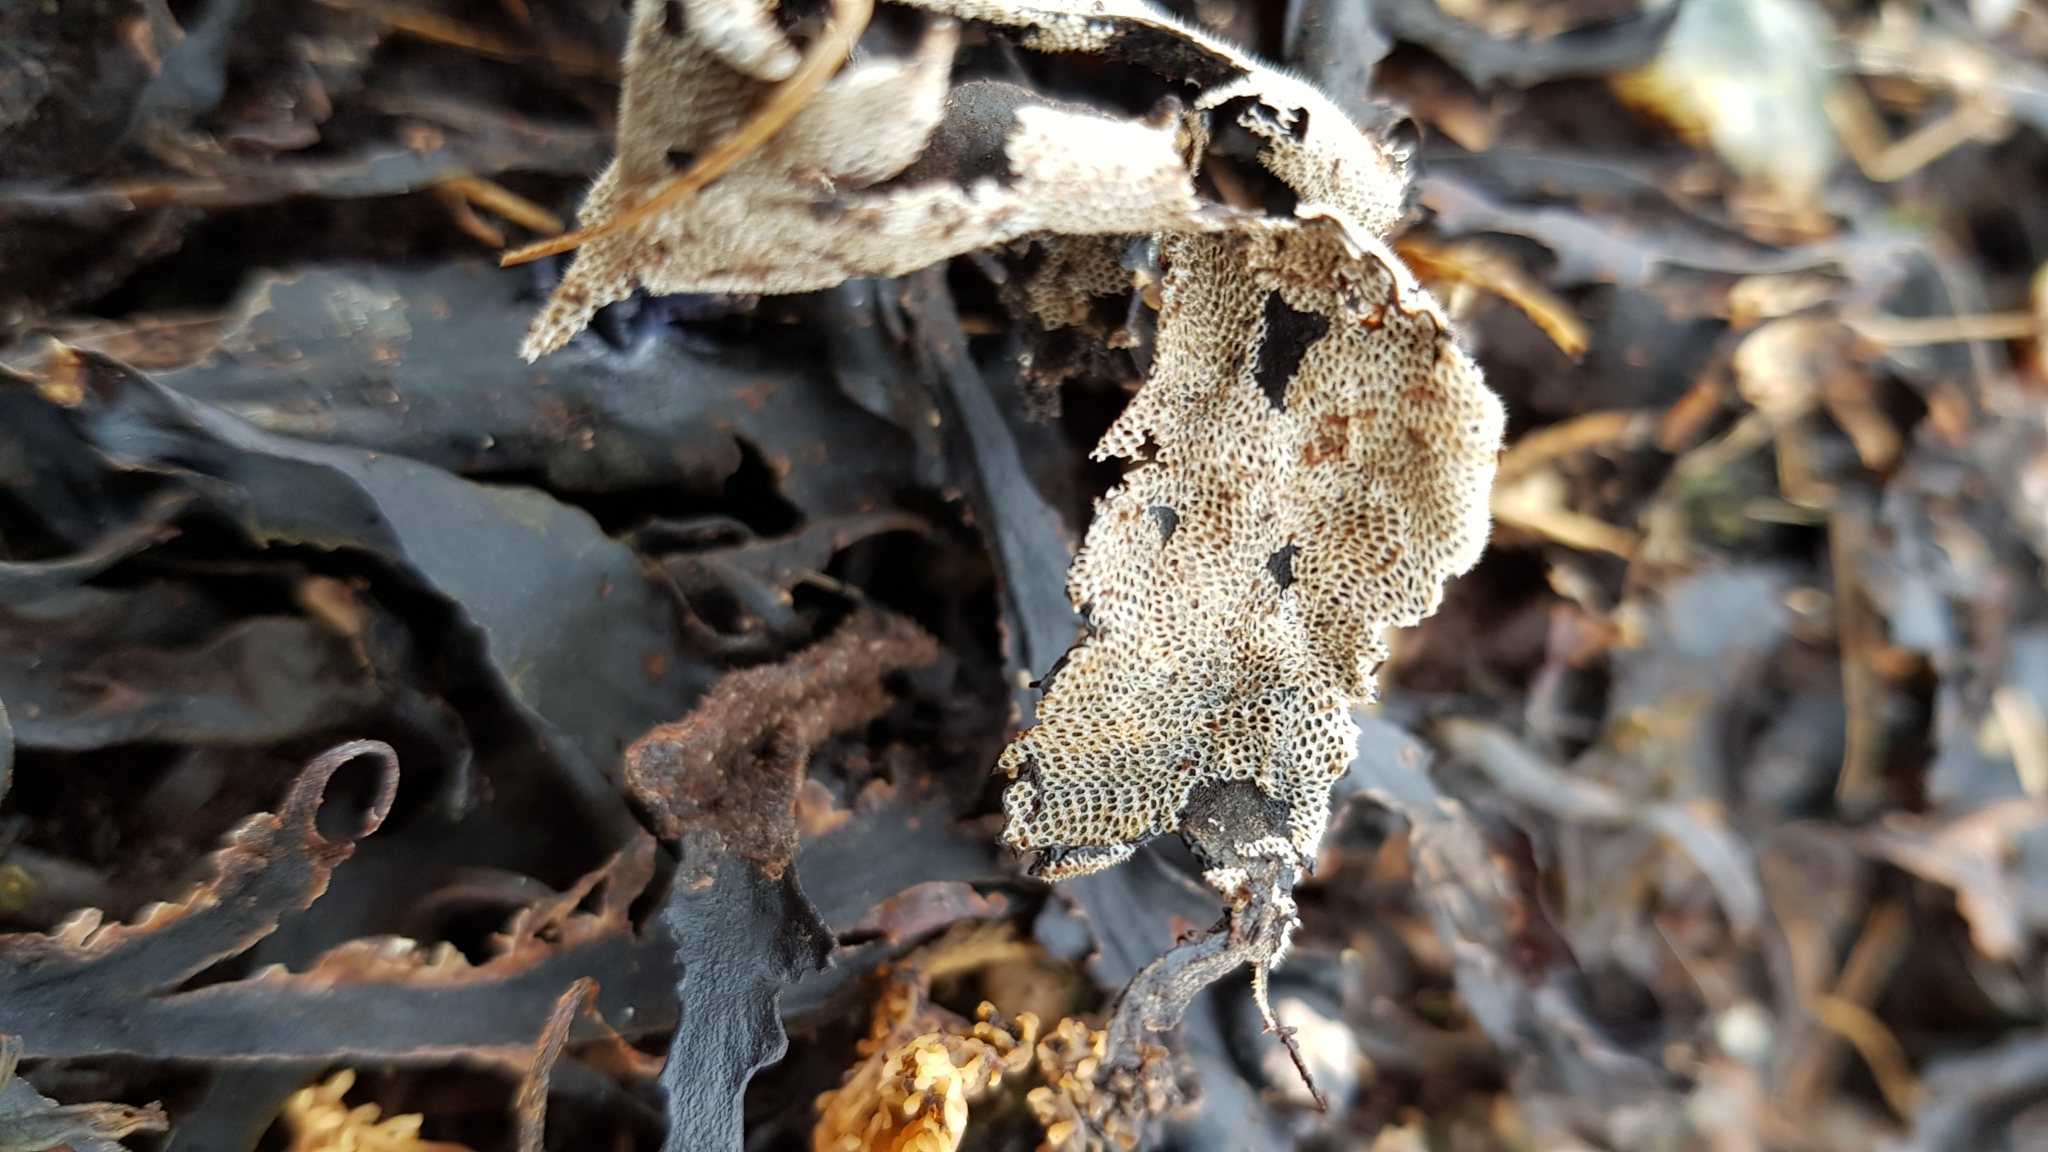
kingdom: Animalia
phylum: Bryozoa
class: Gymnolaemata
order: Cheilostomatida
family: Electridae
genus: Electra
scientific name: Electra pilosa
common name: Hairy sea-mat
